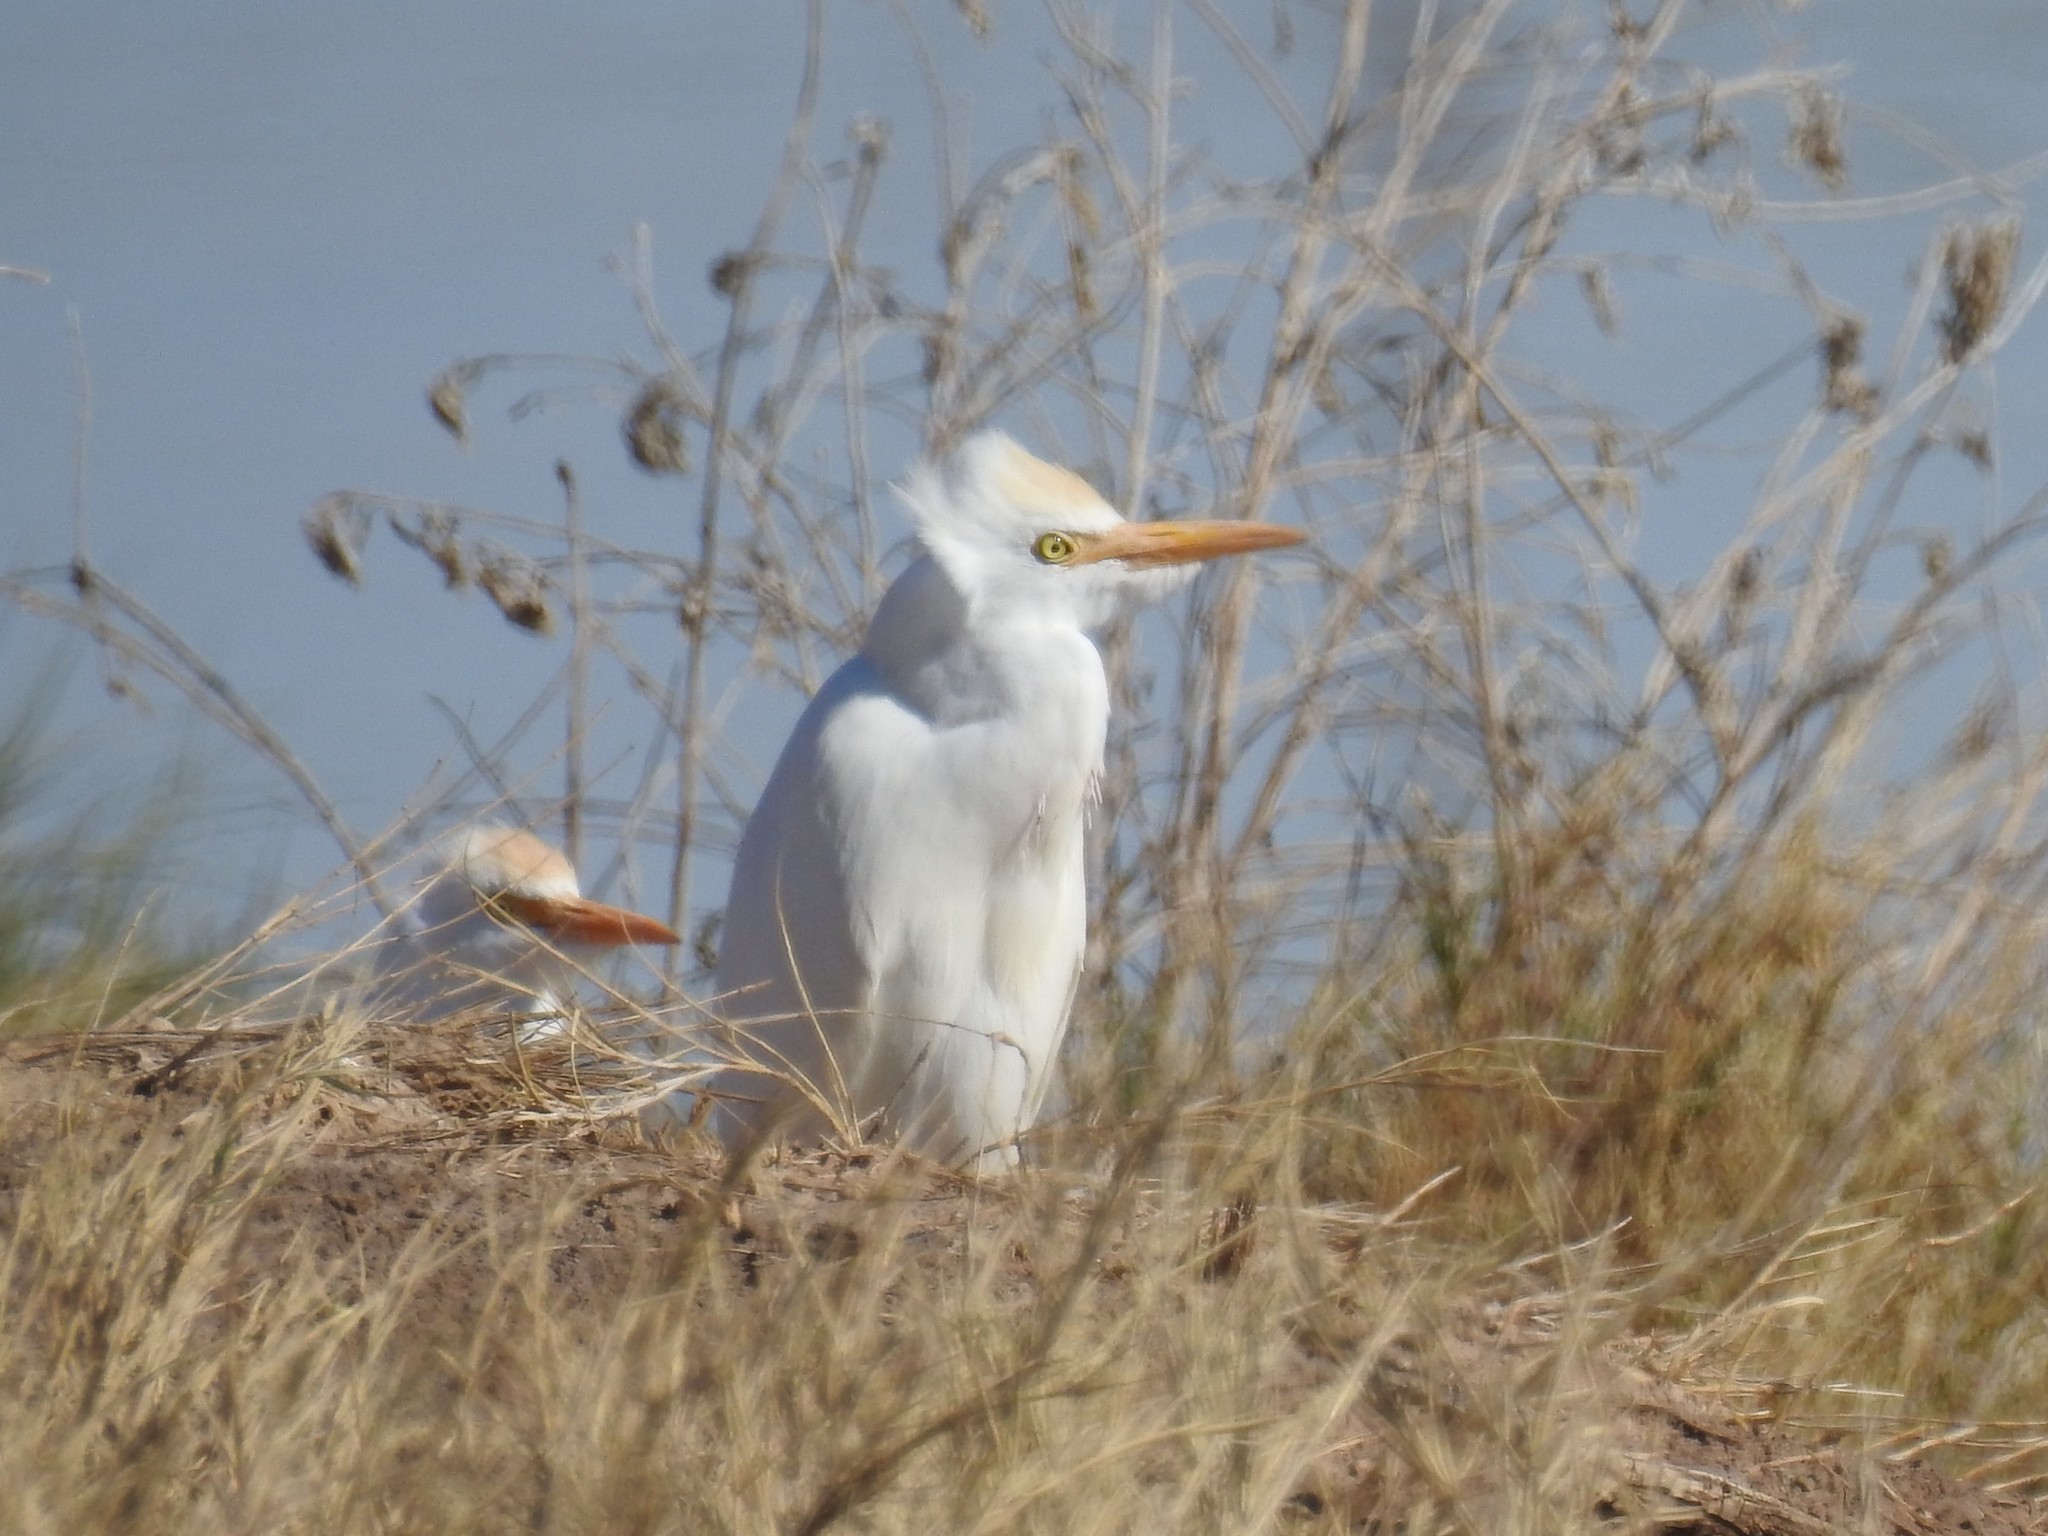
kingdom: Animalia
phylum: Chordata
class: Aves
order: Pelecaniformes
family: Ardeidae
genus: Bubulcus
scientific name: Bubulcus ibis
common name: Cattle egret
